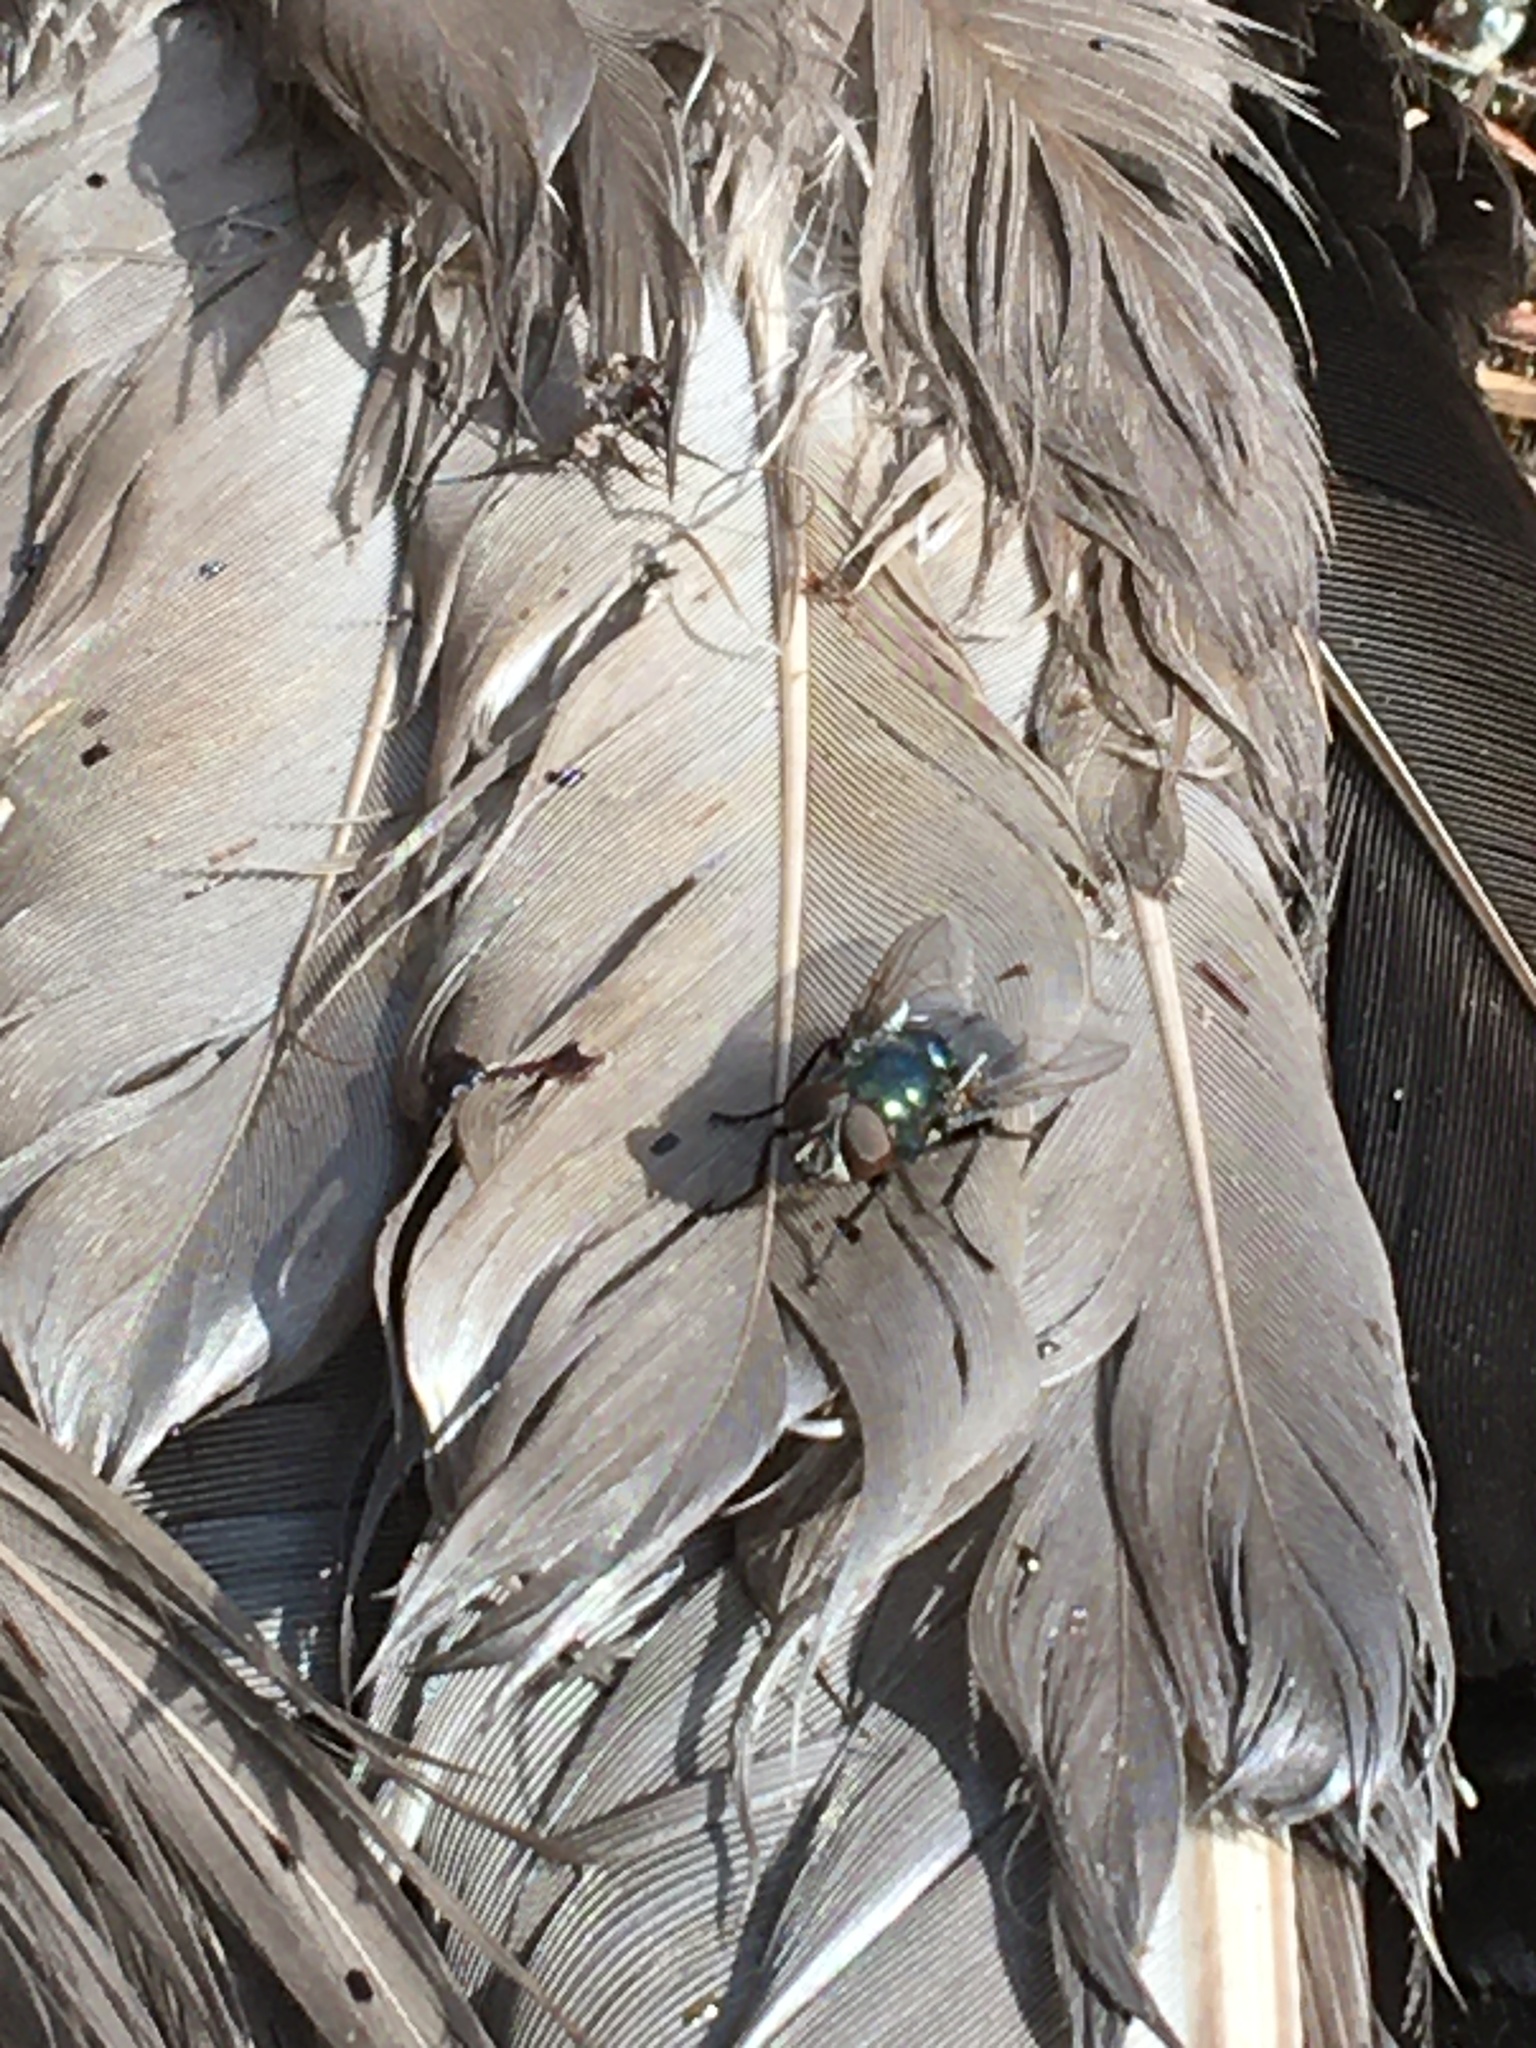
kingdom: Animalia
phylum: Arthropoda
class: Insecta
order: Diptera
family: Calliphoridae
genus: Phormia
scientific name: Phormia regina
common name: Black blow fly
